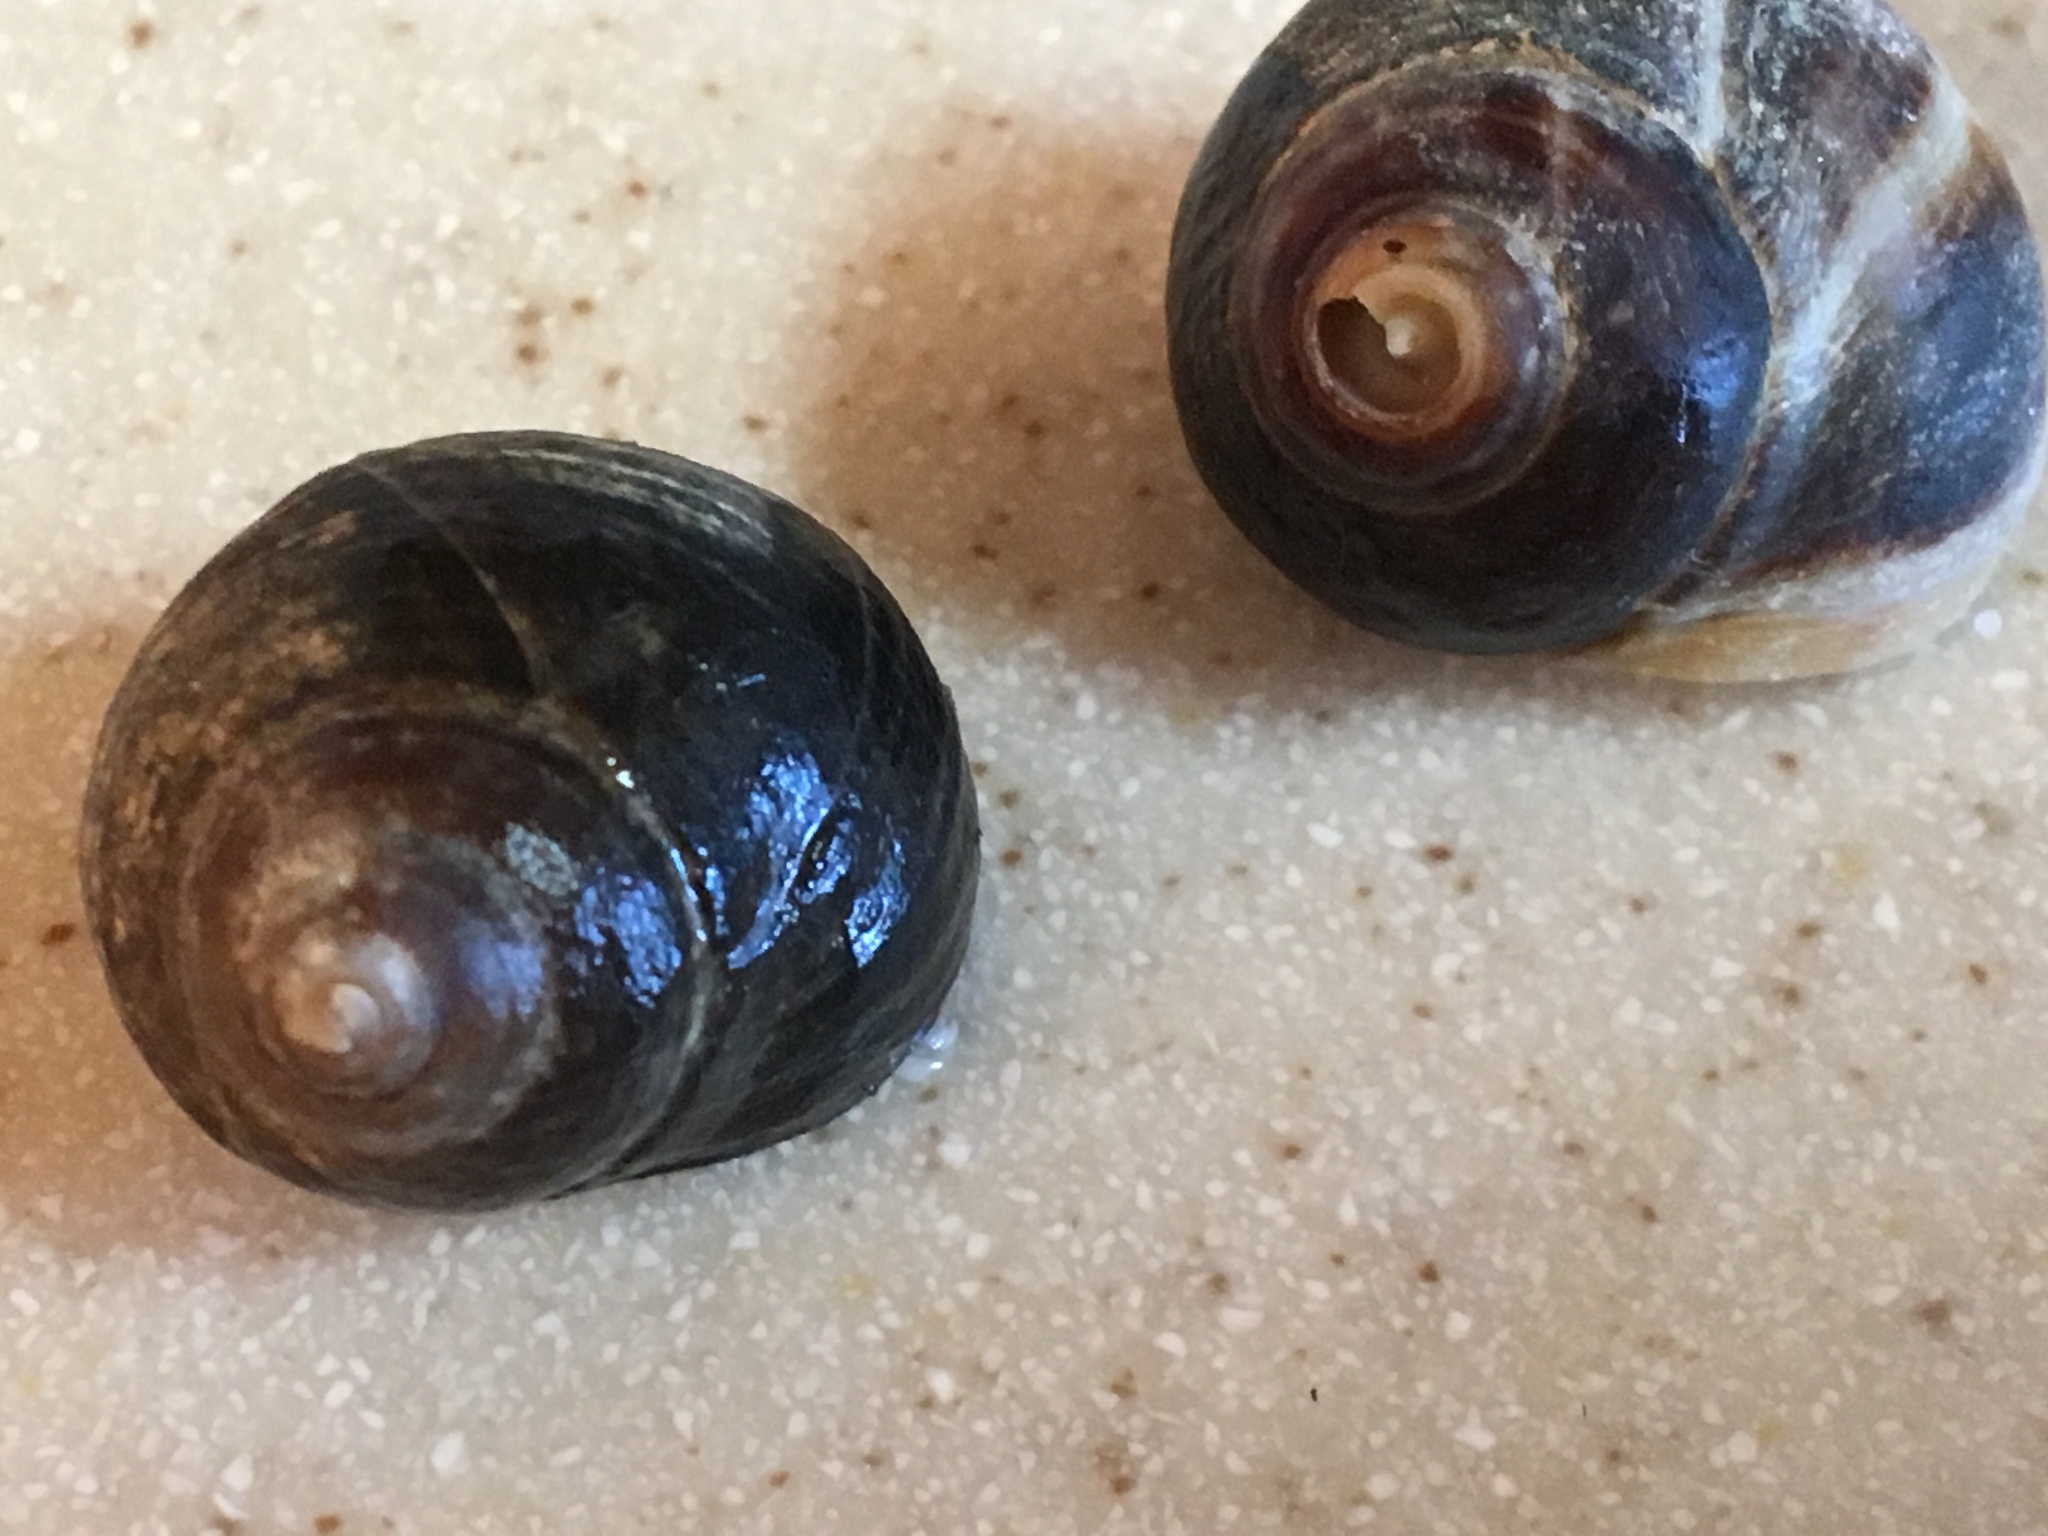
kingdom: Animalia
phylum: Mollusca
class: Gastropoda
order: Littorinimorpha
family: Littorinidae
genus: Littorina
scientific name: Littorina littorea
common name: Common periwinkle
